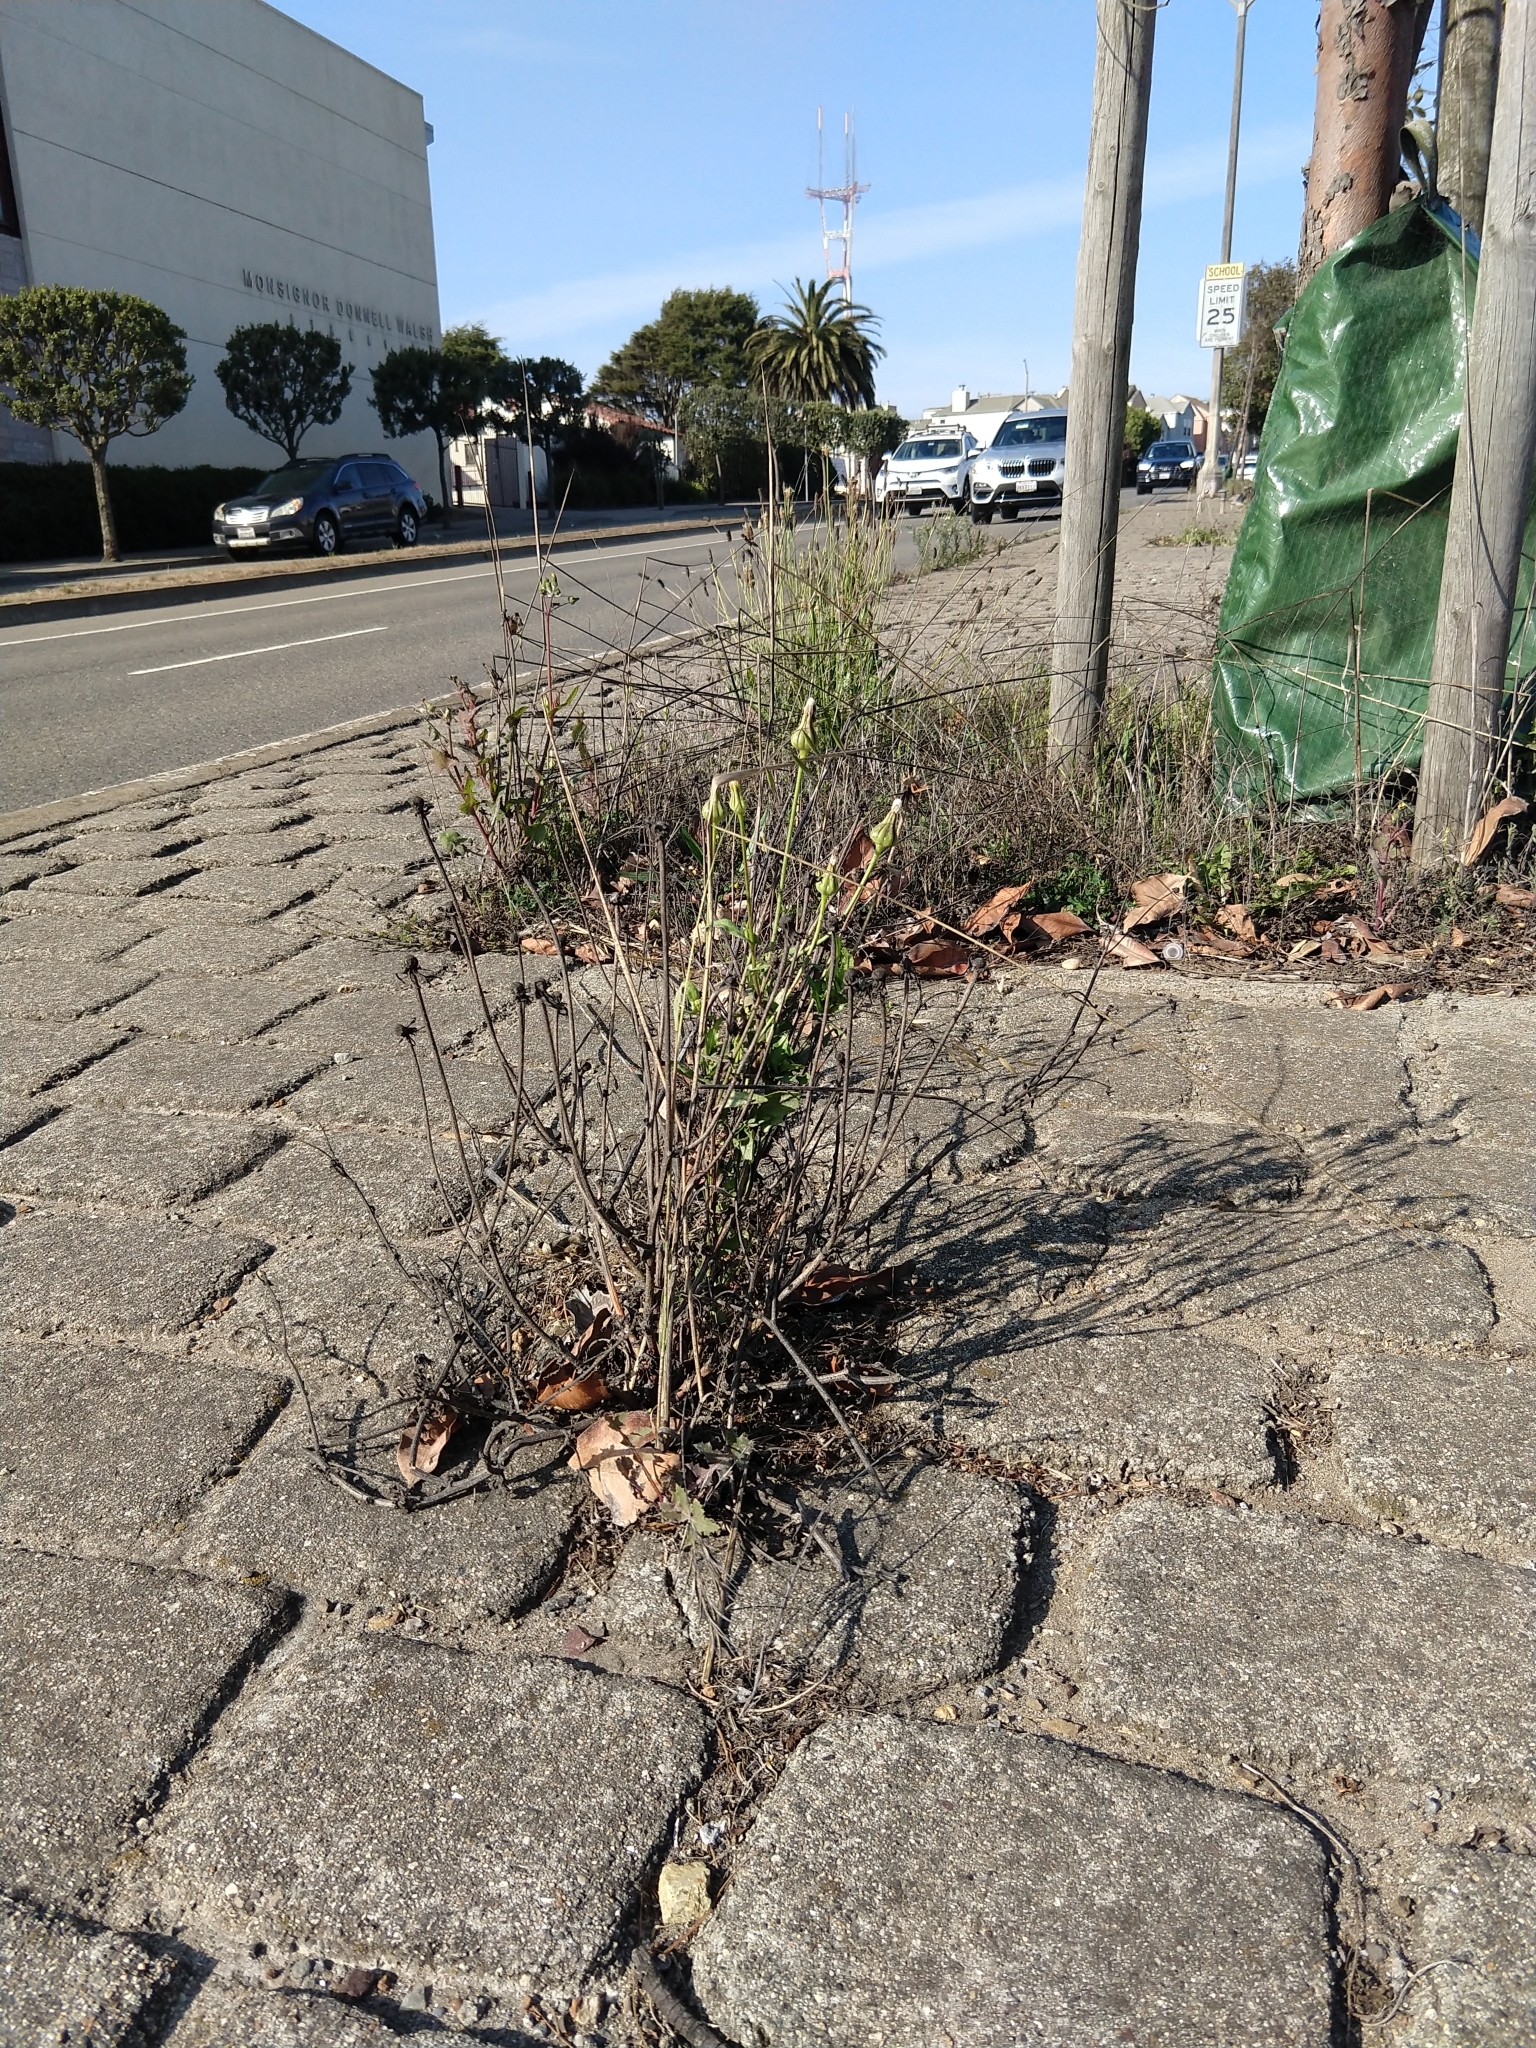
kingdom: Plantae
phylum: Tracheophyta
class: Magnoliopsida
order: Asterales
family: Asteraceae
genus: Urospermum
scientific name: Urospermum picroides
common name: False hawkbit
